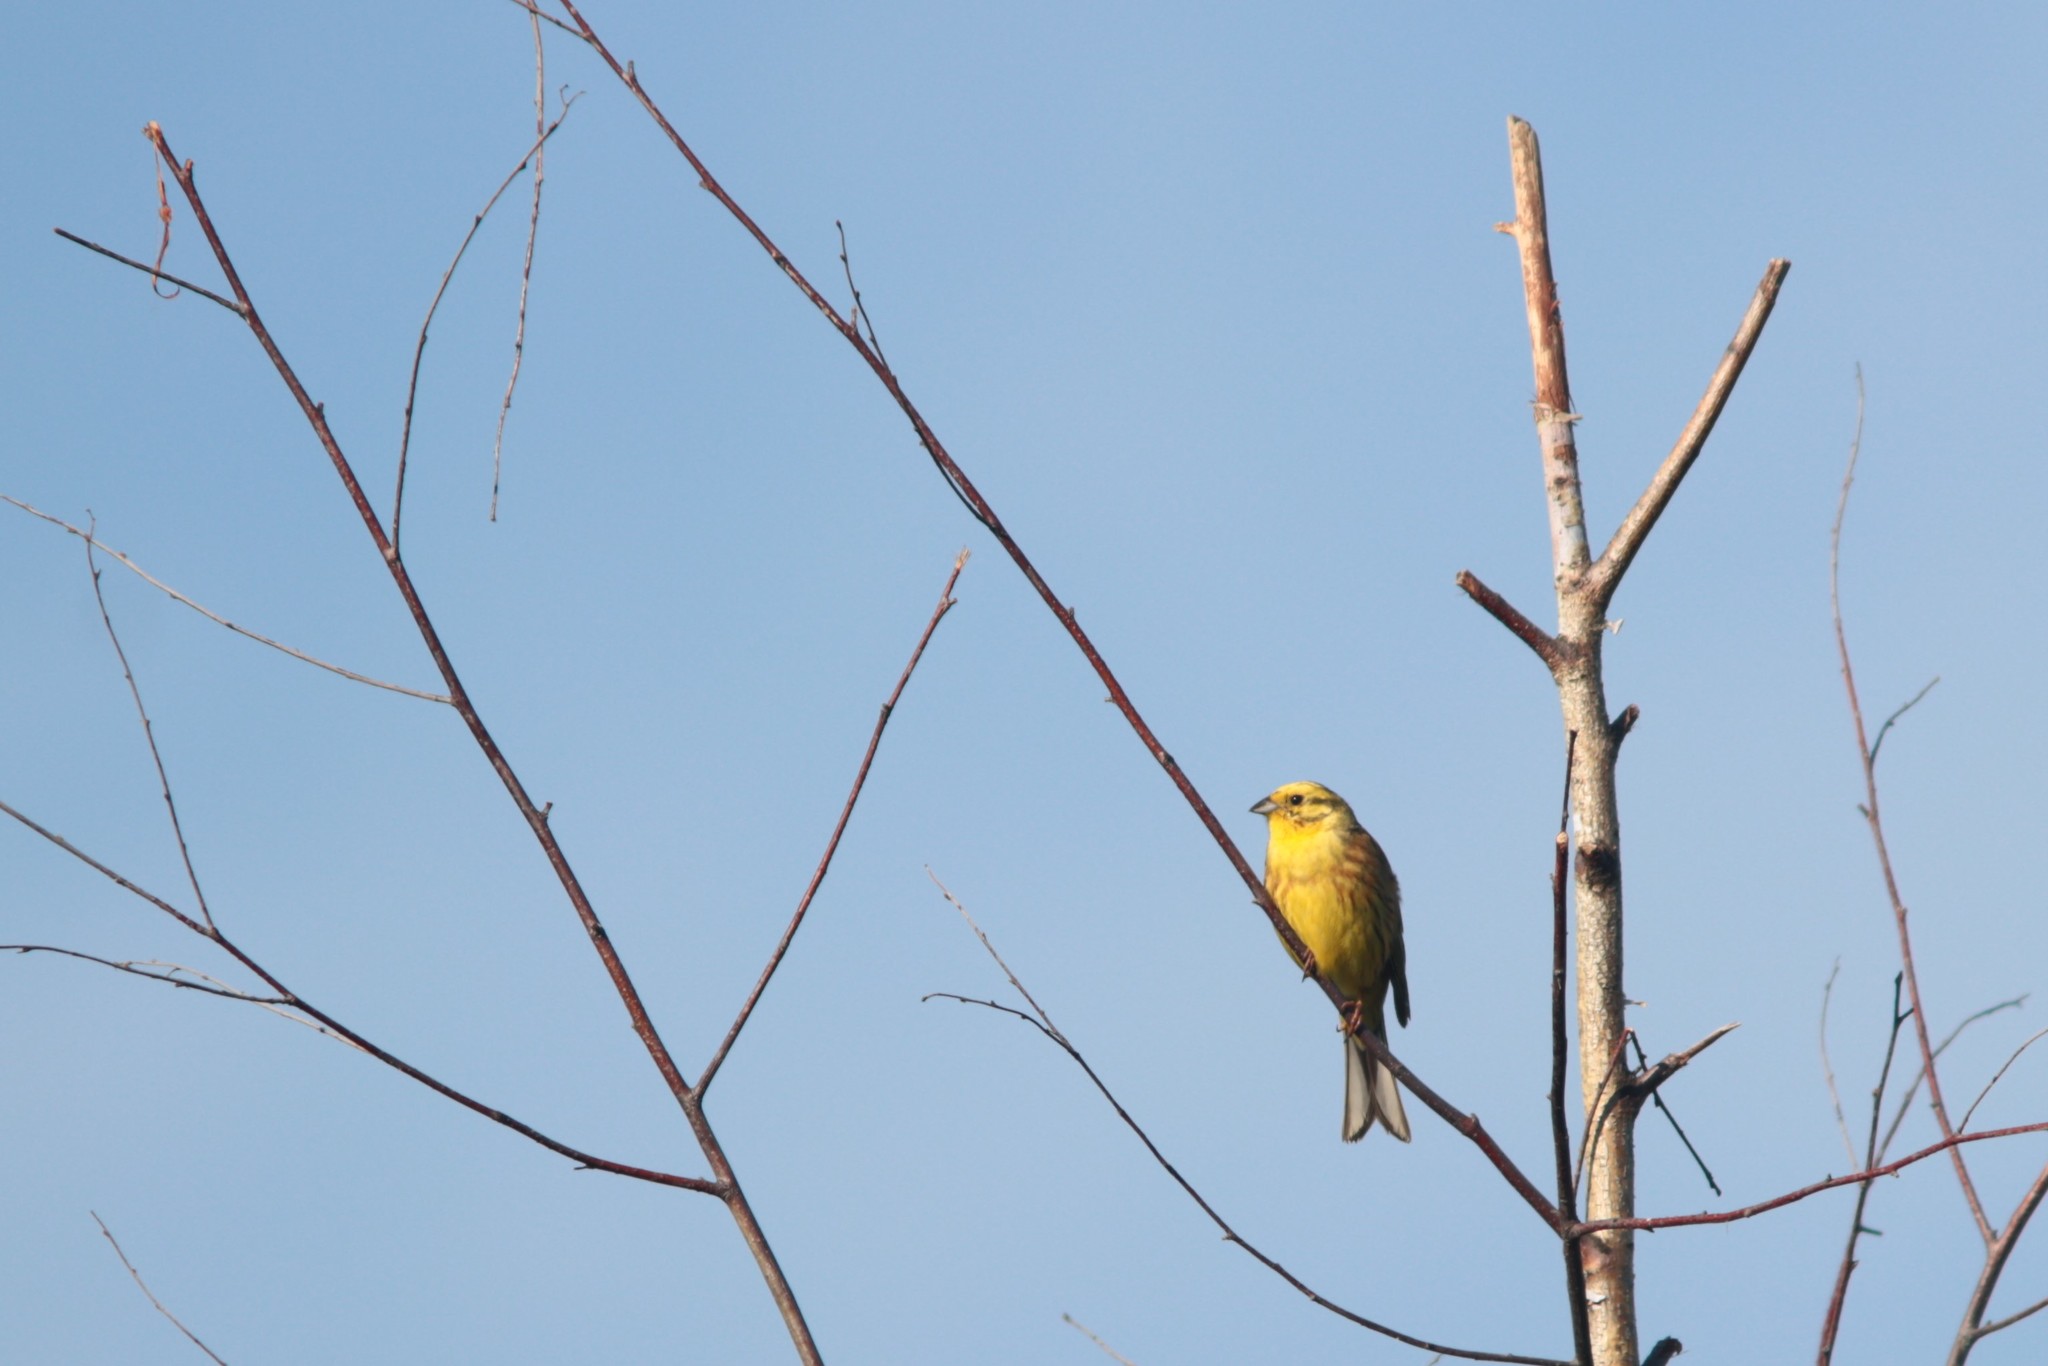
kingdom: Animalia
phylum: Chordata
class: Aves
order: Passeriformes
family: Emberizidae
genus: Emberiza
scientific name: Emberiza citrinella
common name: Yellowhammer
